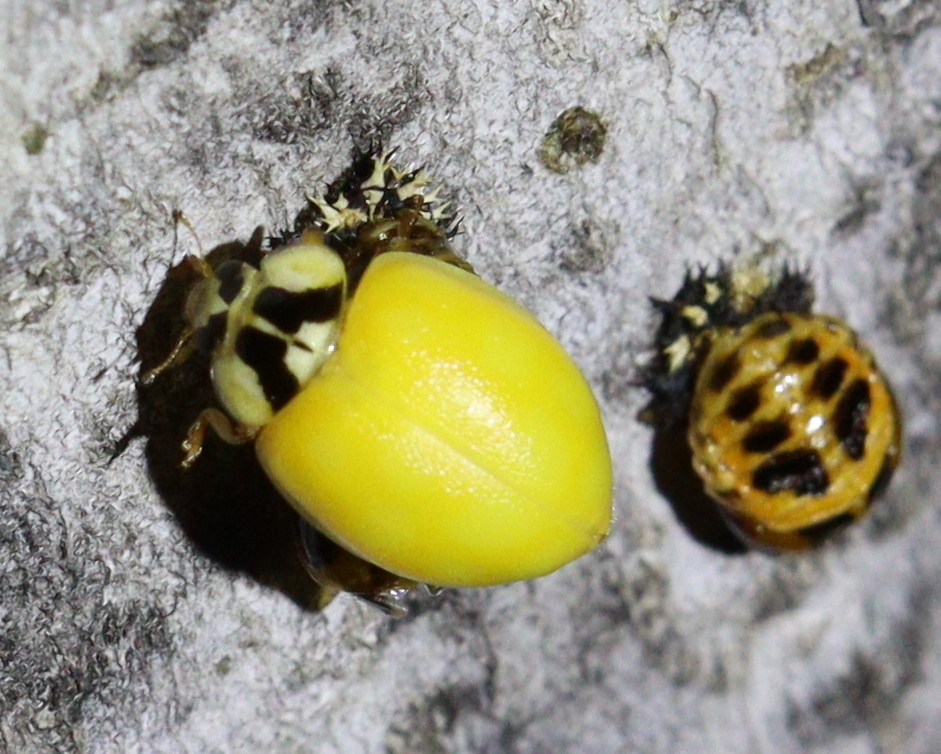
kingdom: Animalia
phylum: Arthropoda
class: Insecta
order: Coleoptera
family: Coccinellidae
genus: Harmonia
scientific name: Harmonia axyridis
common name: Harlequin ladybird
